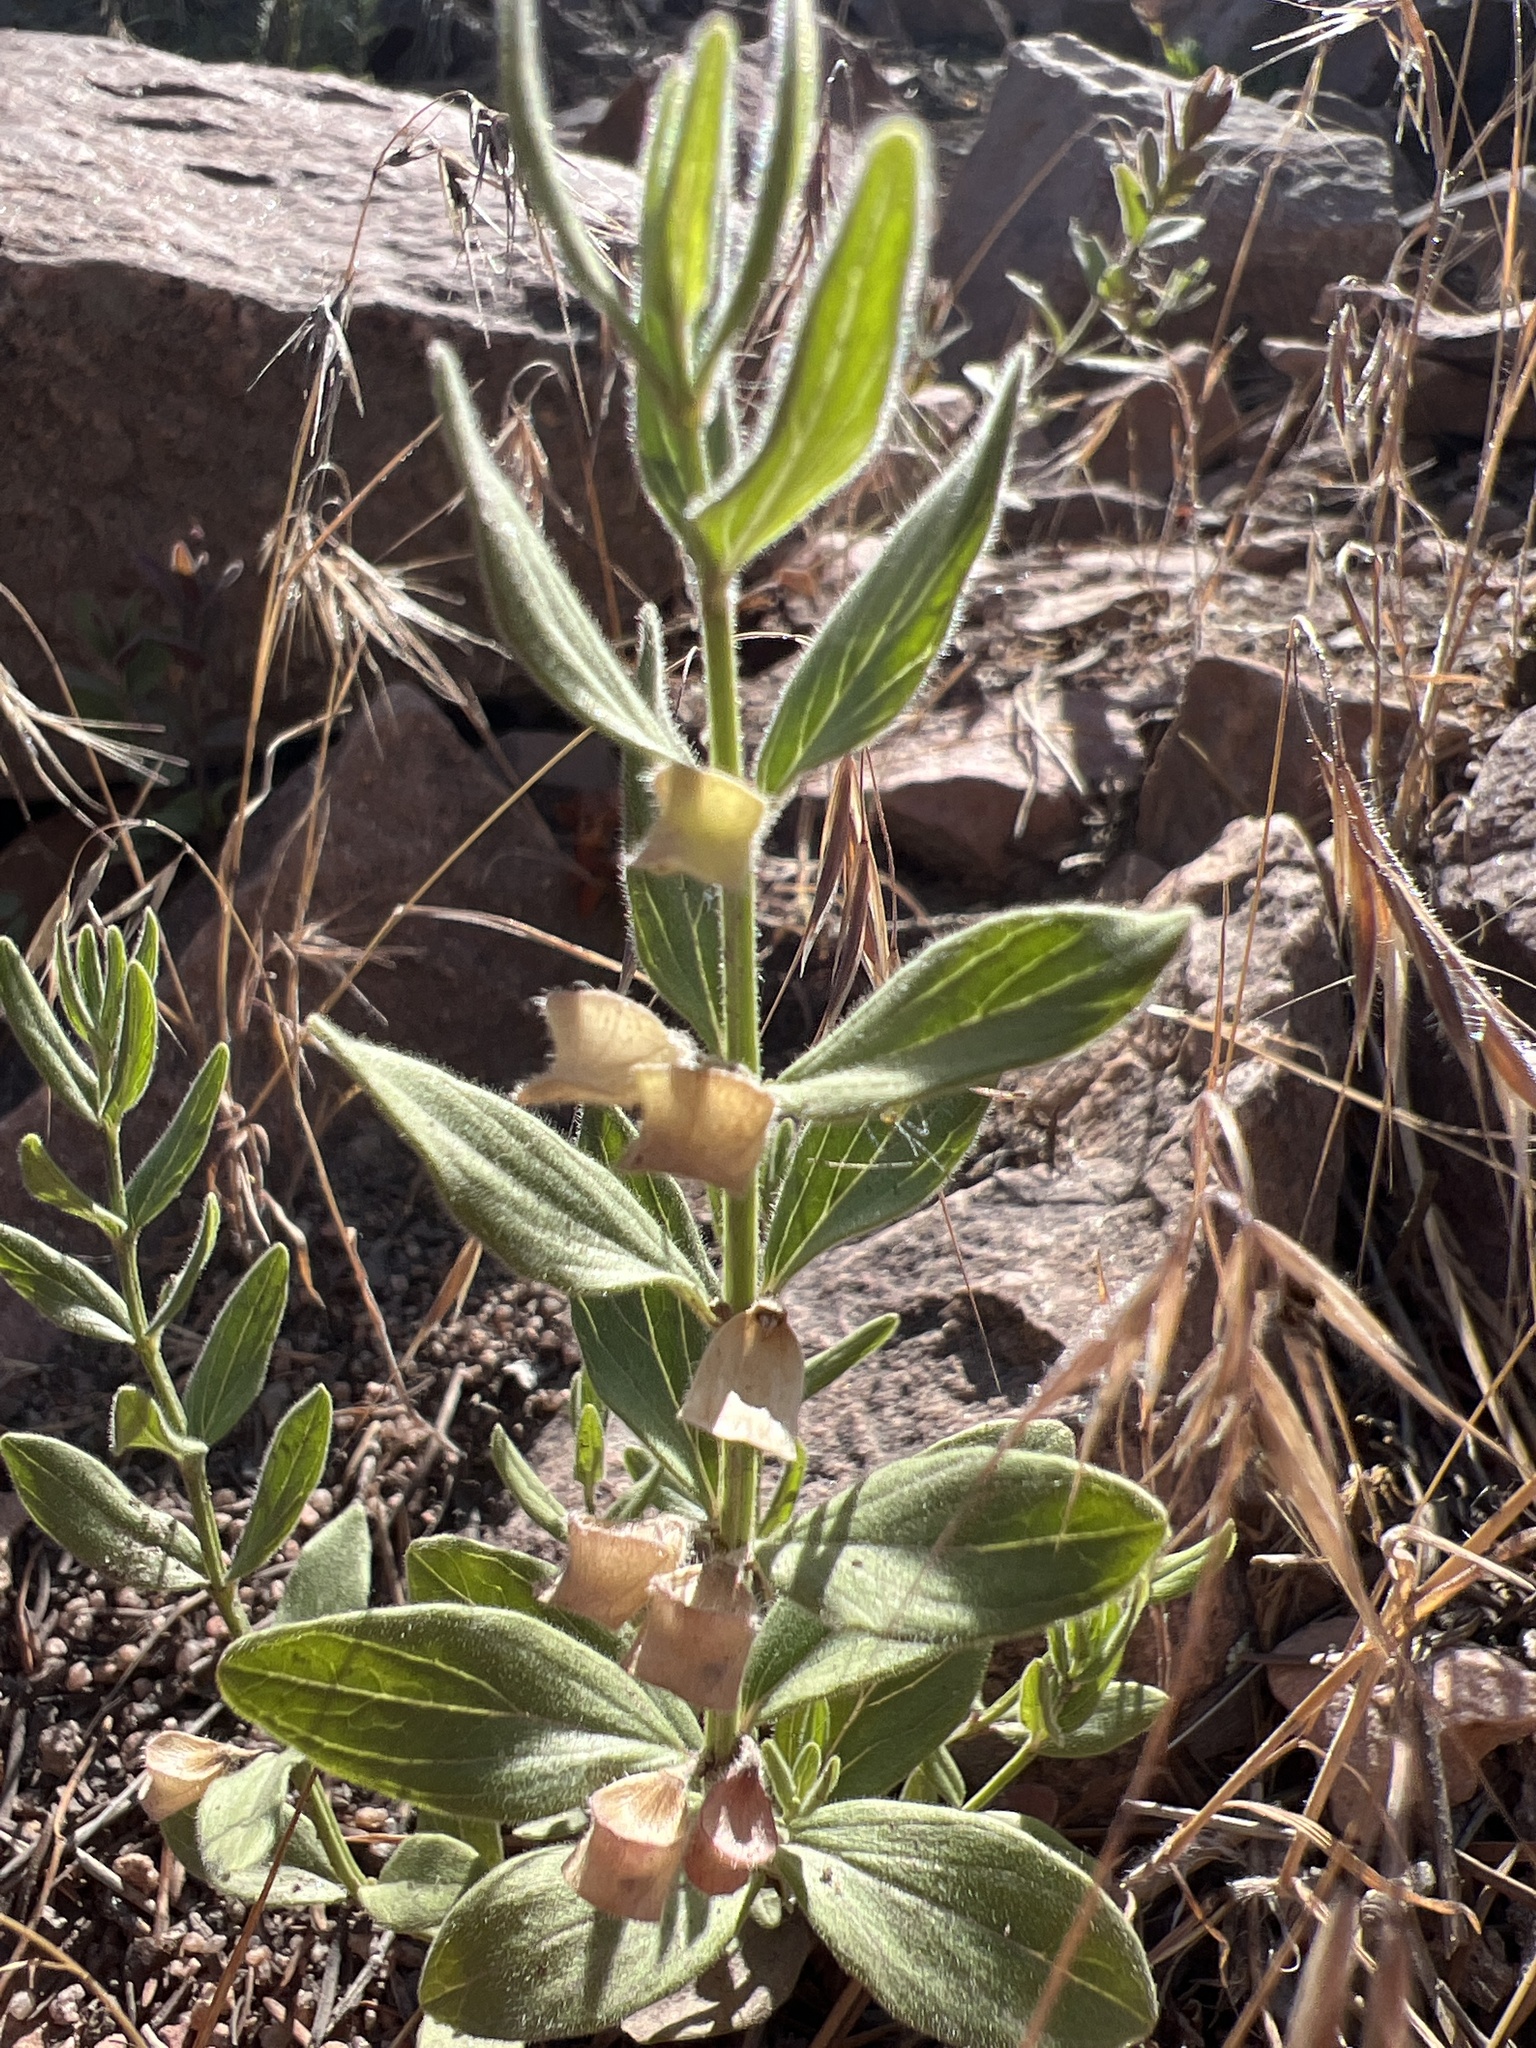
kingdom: Plantae
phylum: Tracheophyta
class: Magnoliopsida
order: Lamiales
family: Lamiaceae
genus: Scutellaria
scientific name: Scutellaria brittonii
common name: Britton's skullcap
